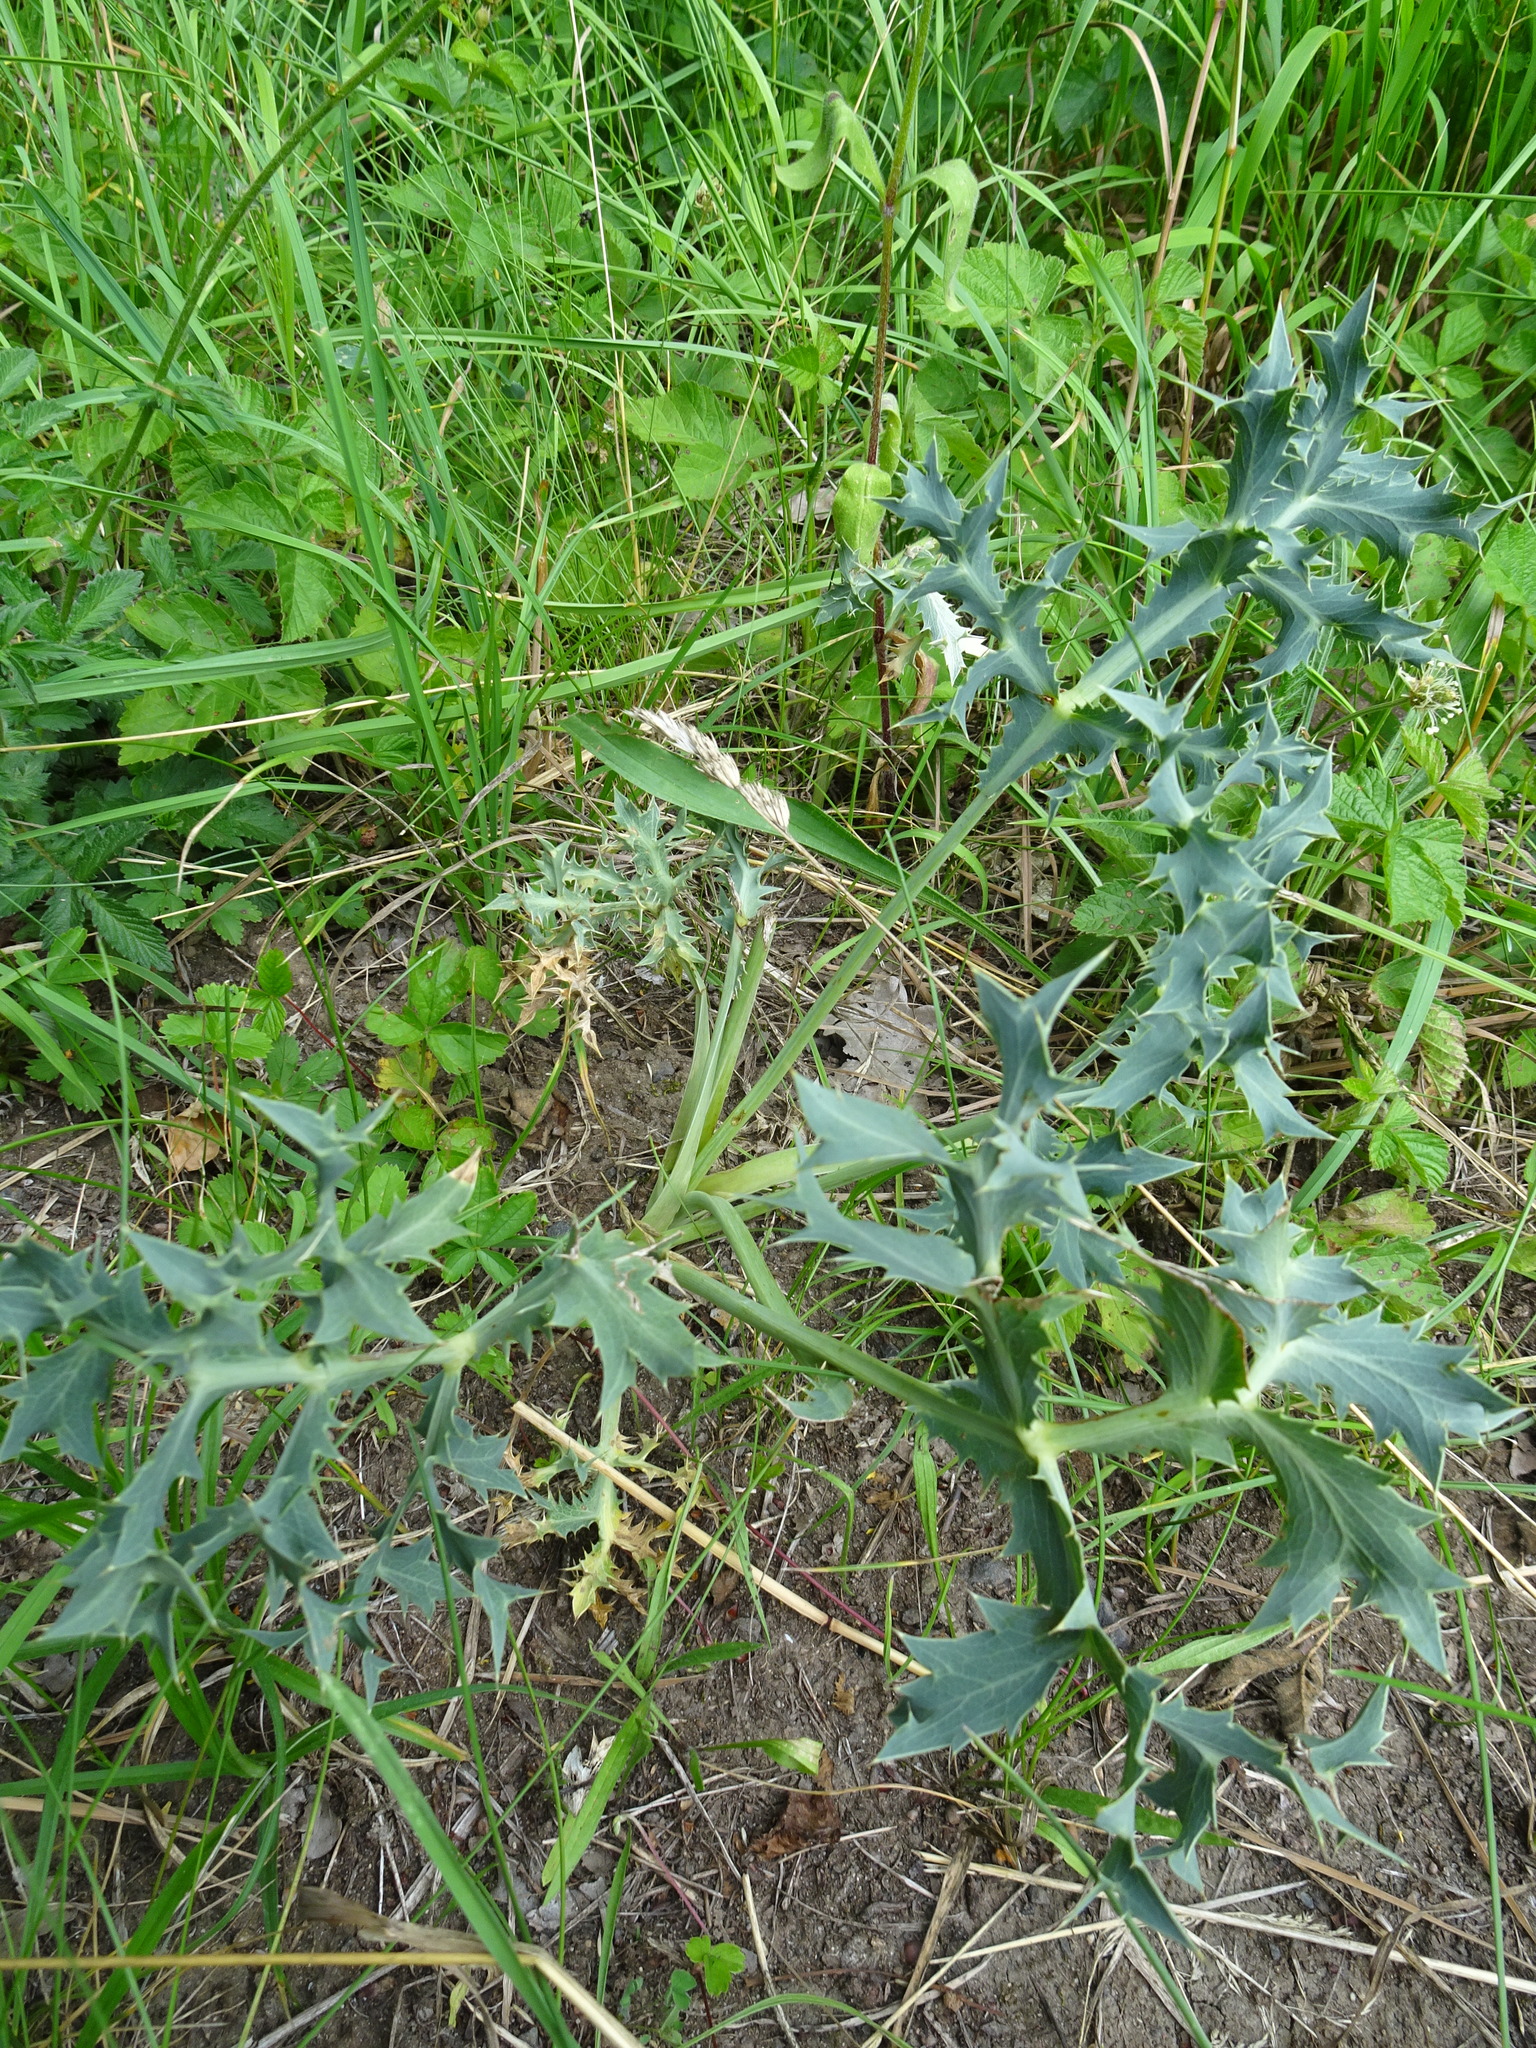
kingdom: Plantae
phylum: Tracheophyta
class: Magnoliopsida
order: Apiales
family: Apiaceae
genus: Eryngium
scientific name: Eryngium campestre
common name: Field eryngo
